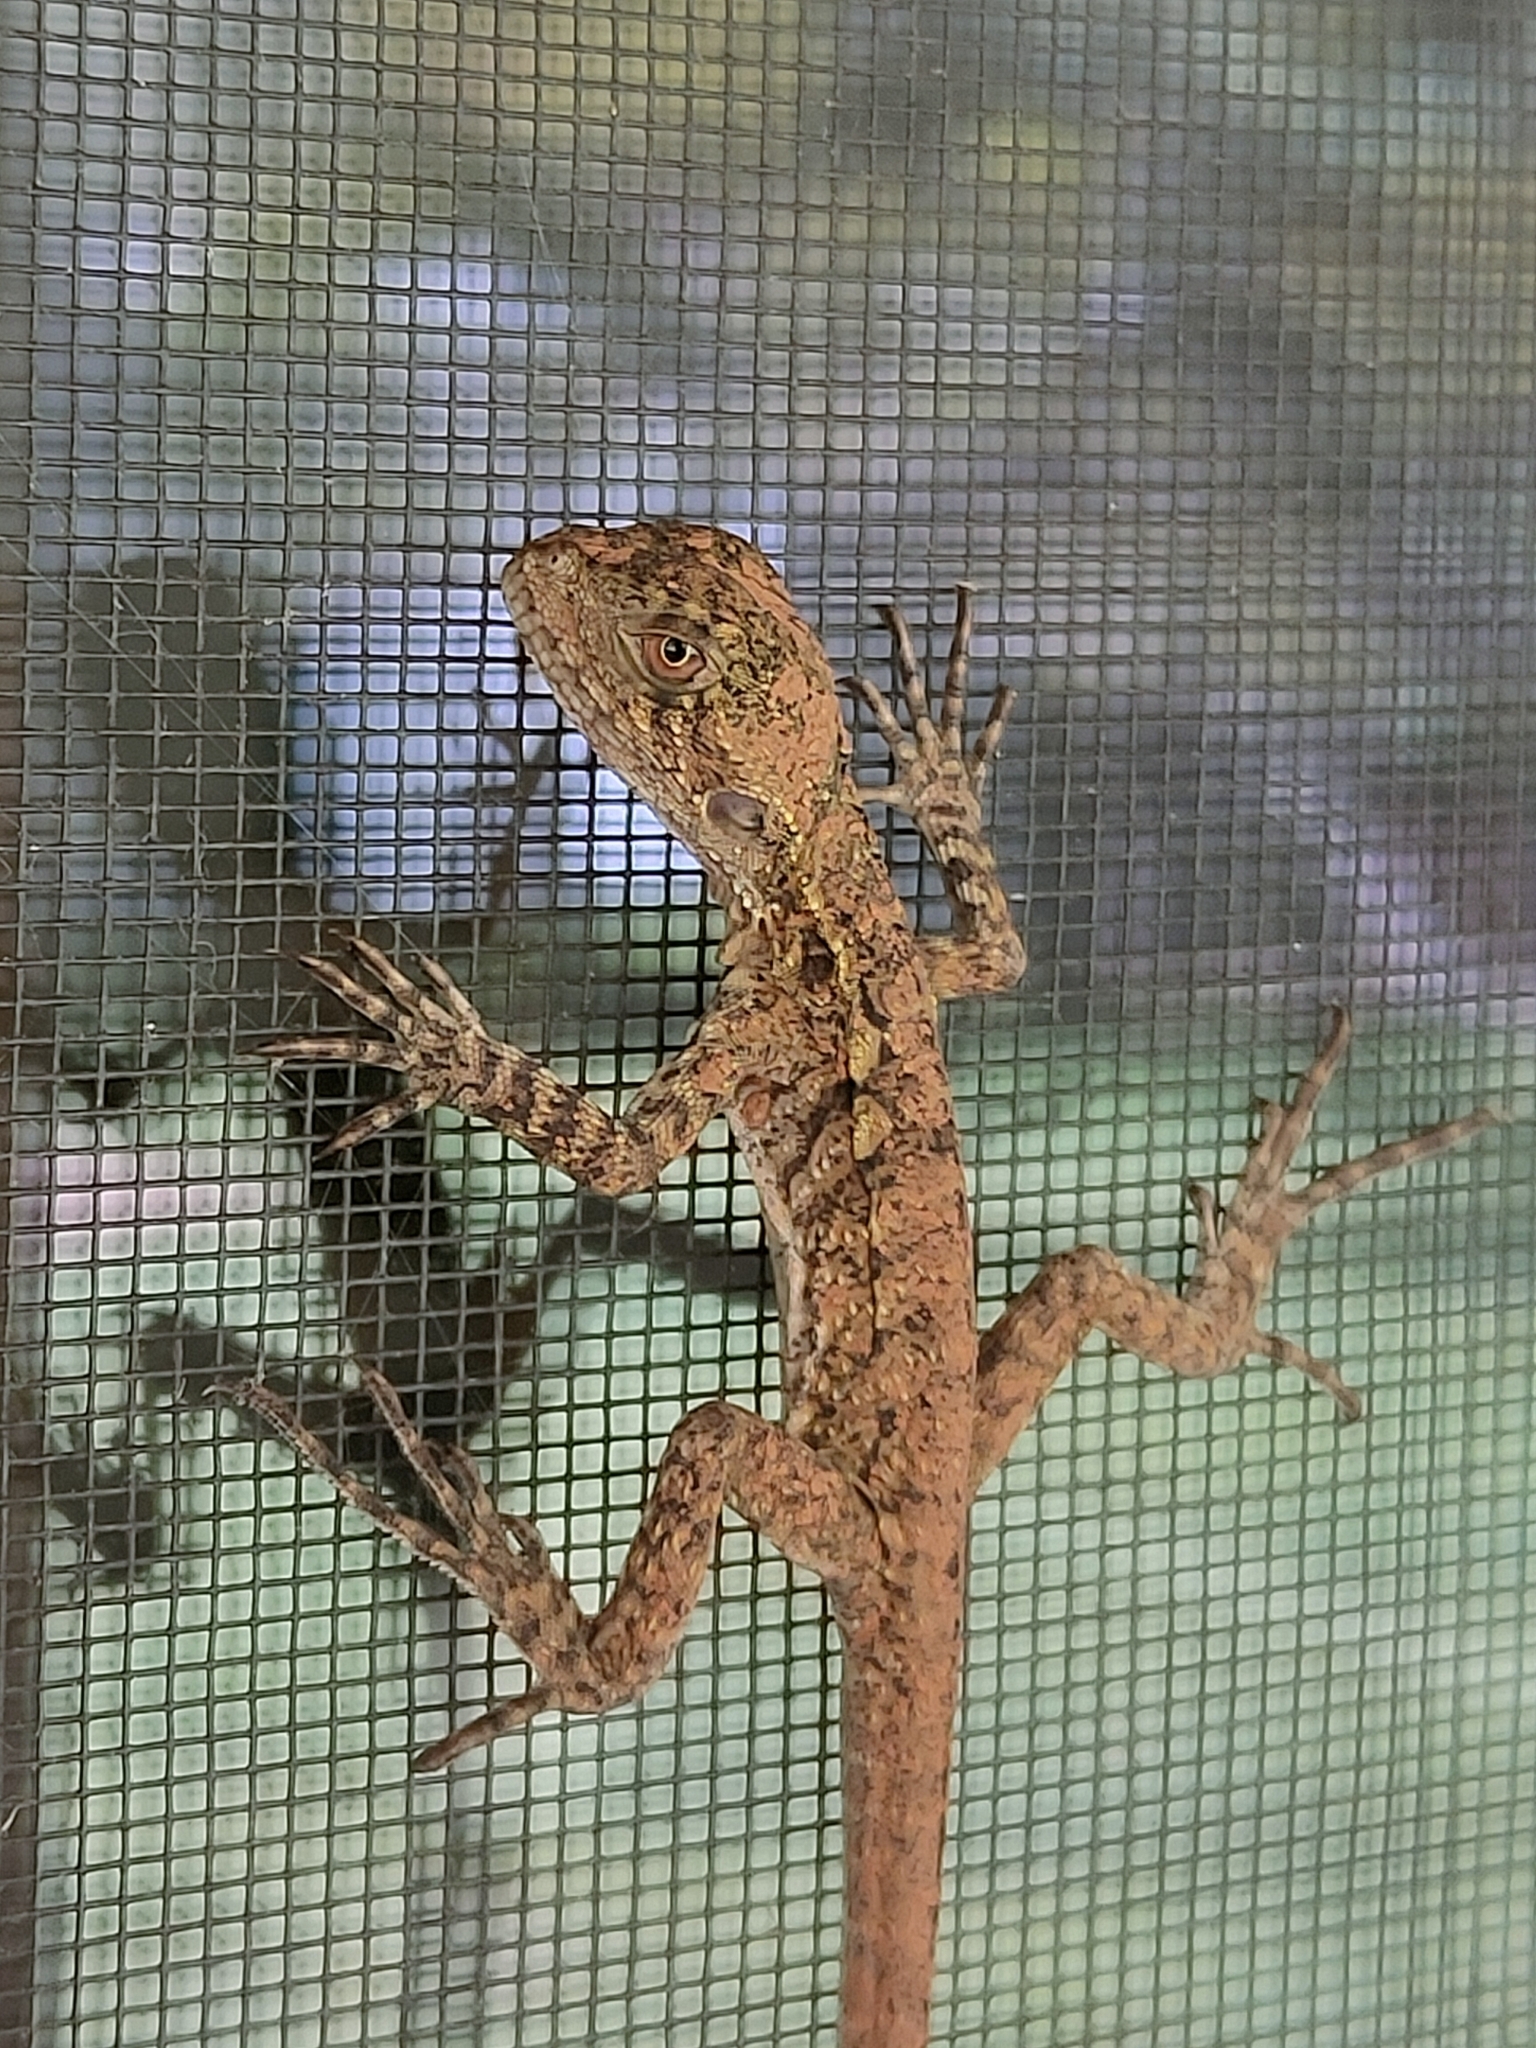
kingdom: Animalia
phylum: Chordata
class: Squamata
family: Agamidae
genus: Intellagama
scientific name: Intellagama lesueurii
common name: Eastern water dragon
